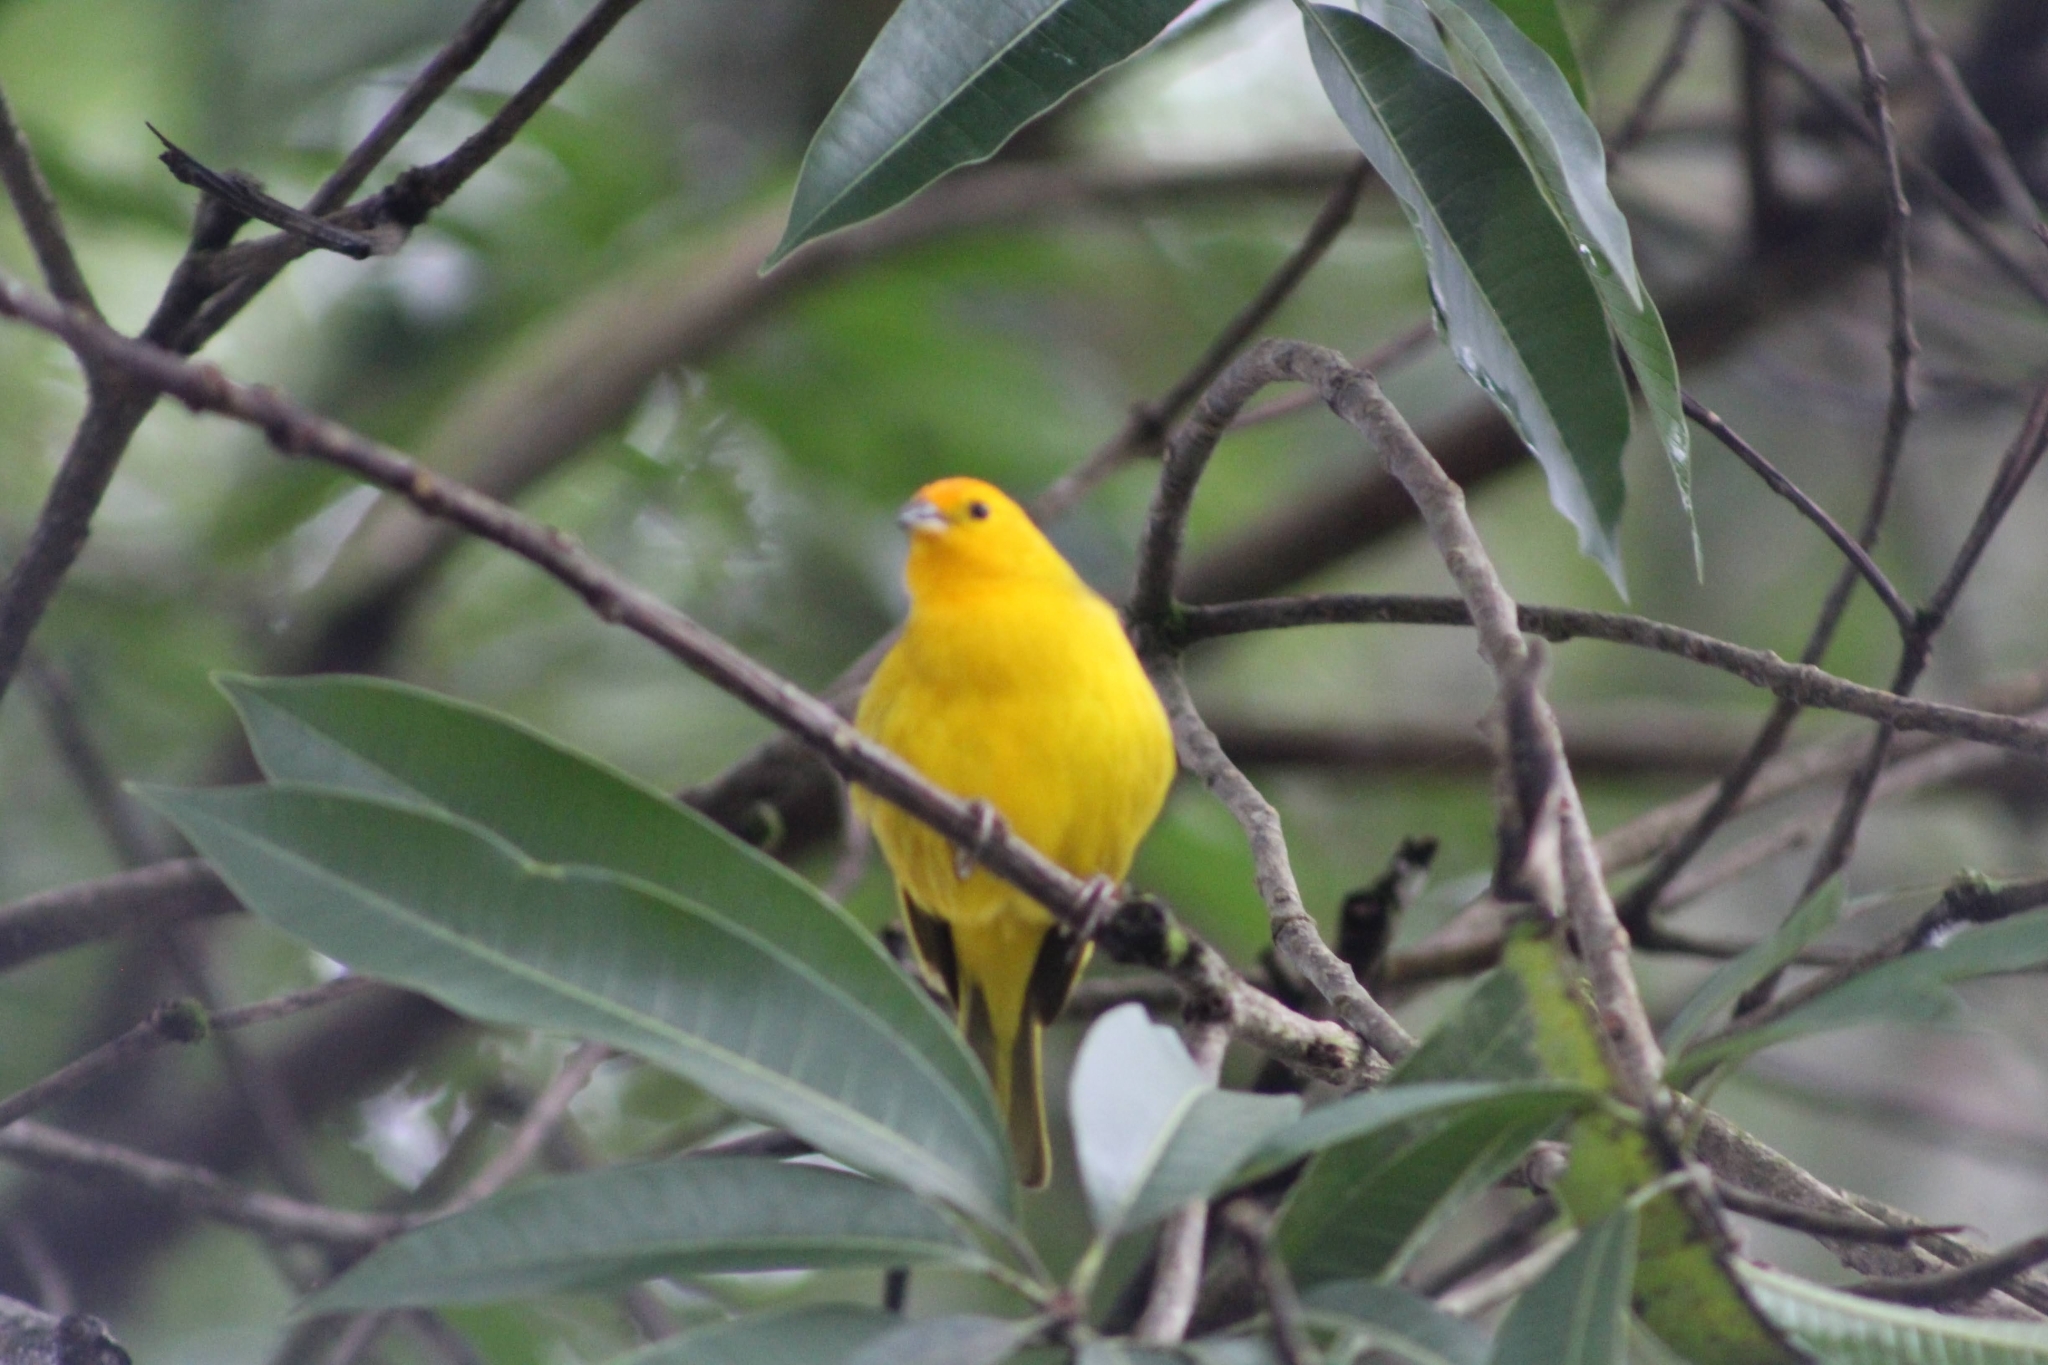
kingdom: Animalia
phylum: Chordata
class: Aves
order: Passeriformes
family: Thraupidae
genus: Sicalis
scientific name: Sicalis flaveola
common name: Saffron finch
